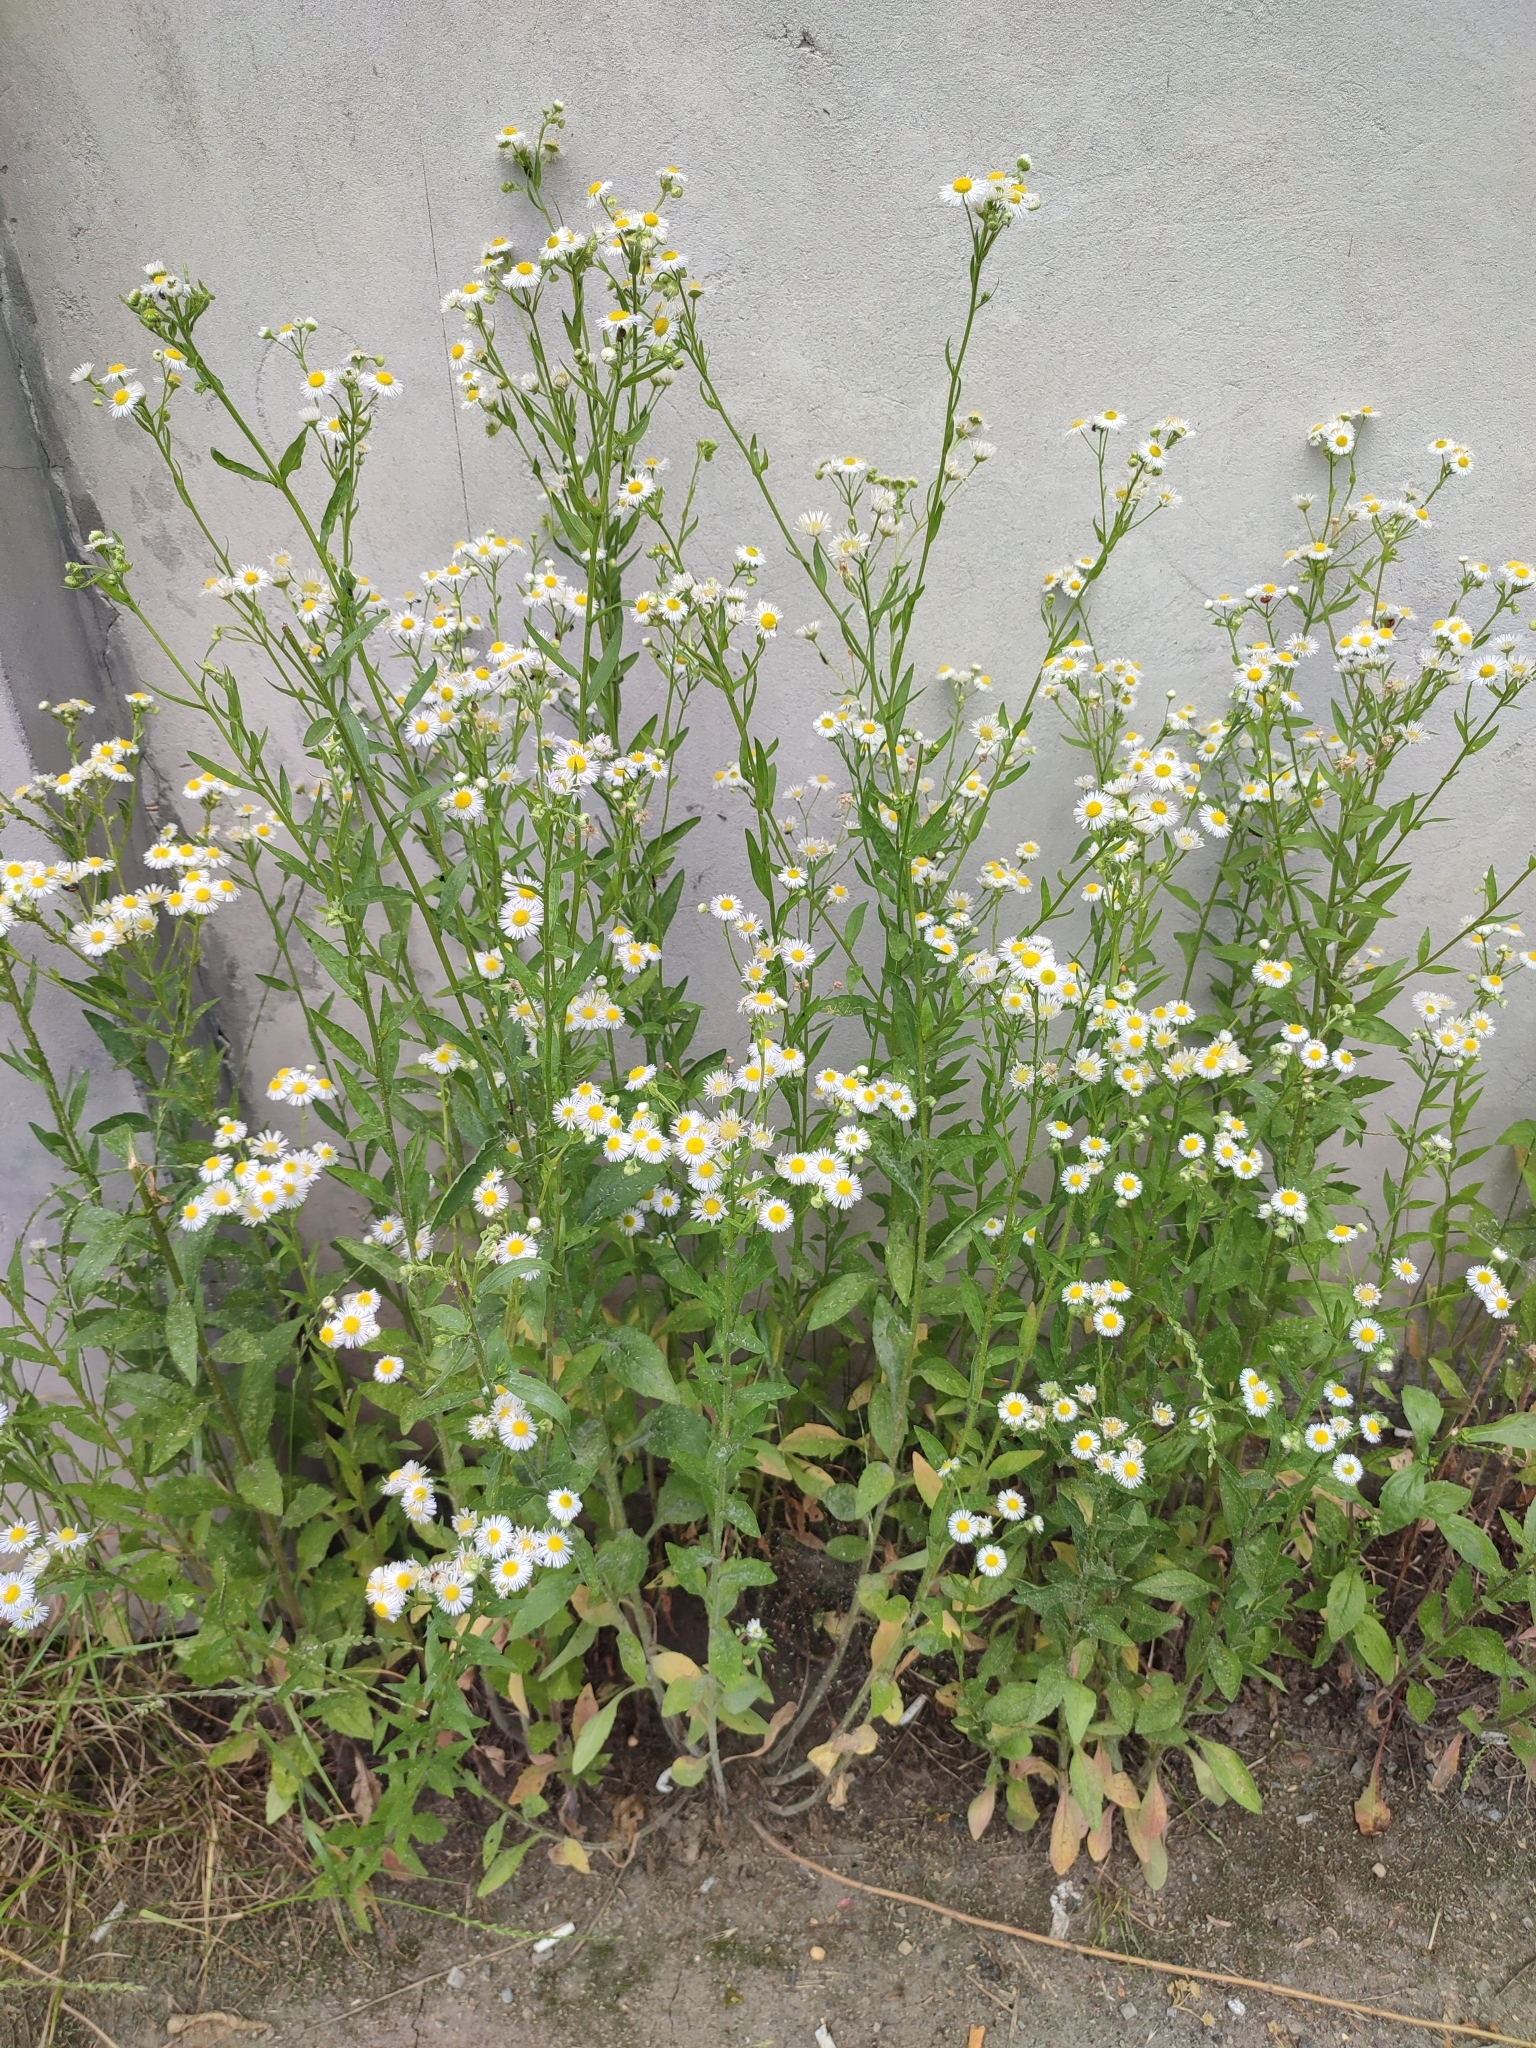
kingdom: Plantae
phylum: Tracheophyta
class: Magnoliopsida
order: Asterales
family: Asteraceae
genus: Erigeron
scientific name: Erigeron annuus
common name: Tall fleabane
